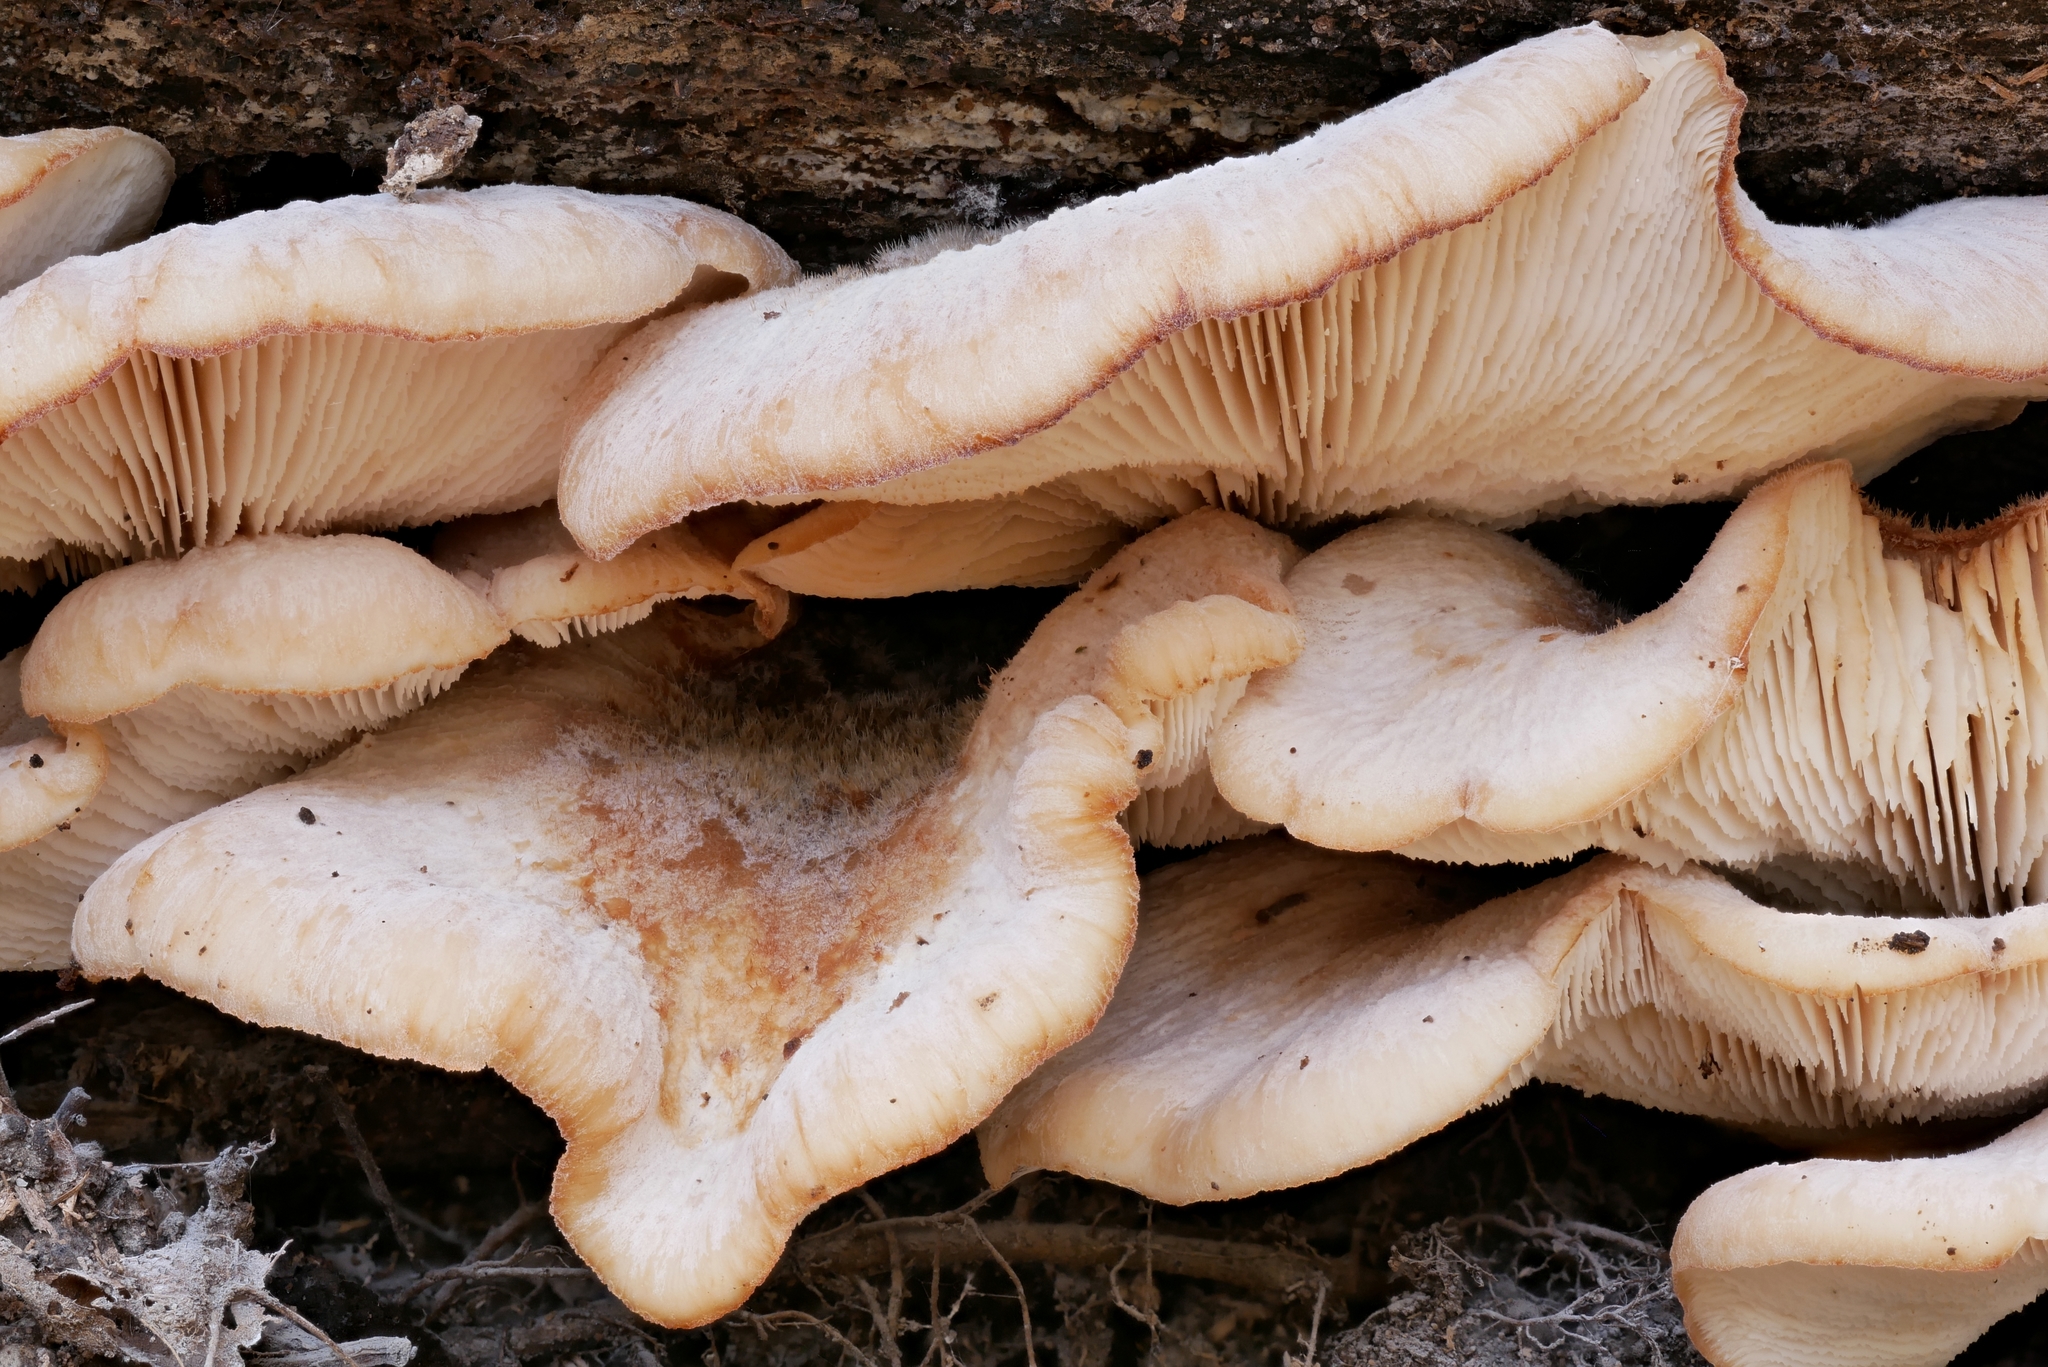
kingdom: Fungi
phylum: Basidiomycota
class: Agaricomycetes
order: Russulales
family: Auriscalpiaceae
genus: Lentinellus
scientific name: Lentinellus ursinus
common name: Bear lentinus
